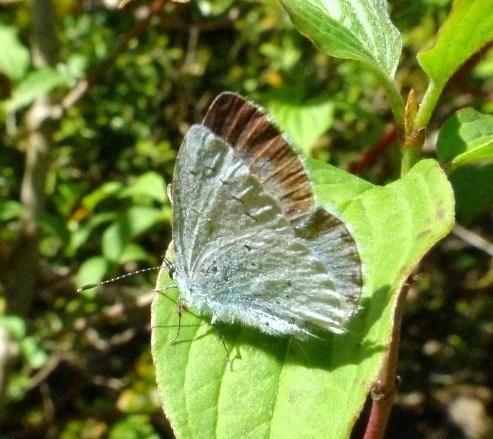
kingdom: Animalia
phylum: Arthropoda
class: Insecta
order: Lepidoptera
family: Lycaenidae
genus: Celastrina
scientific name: Celastrina argiolus
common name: Holly blue
